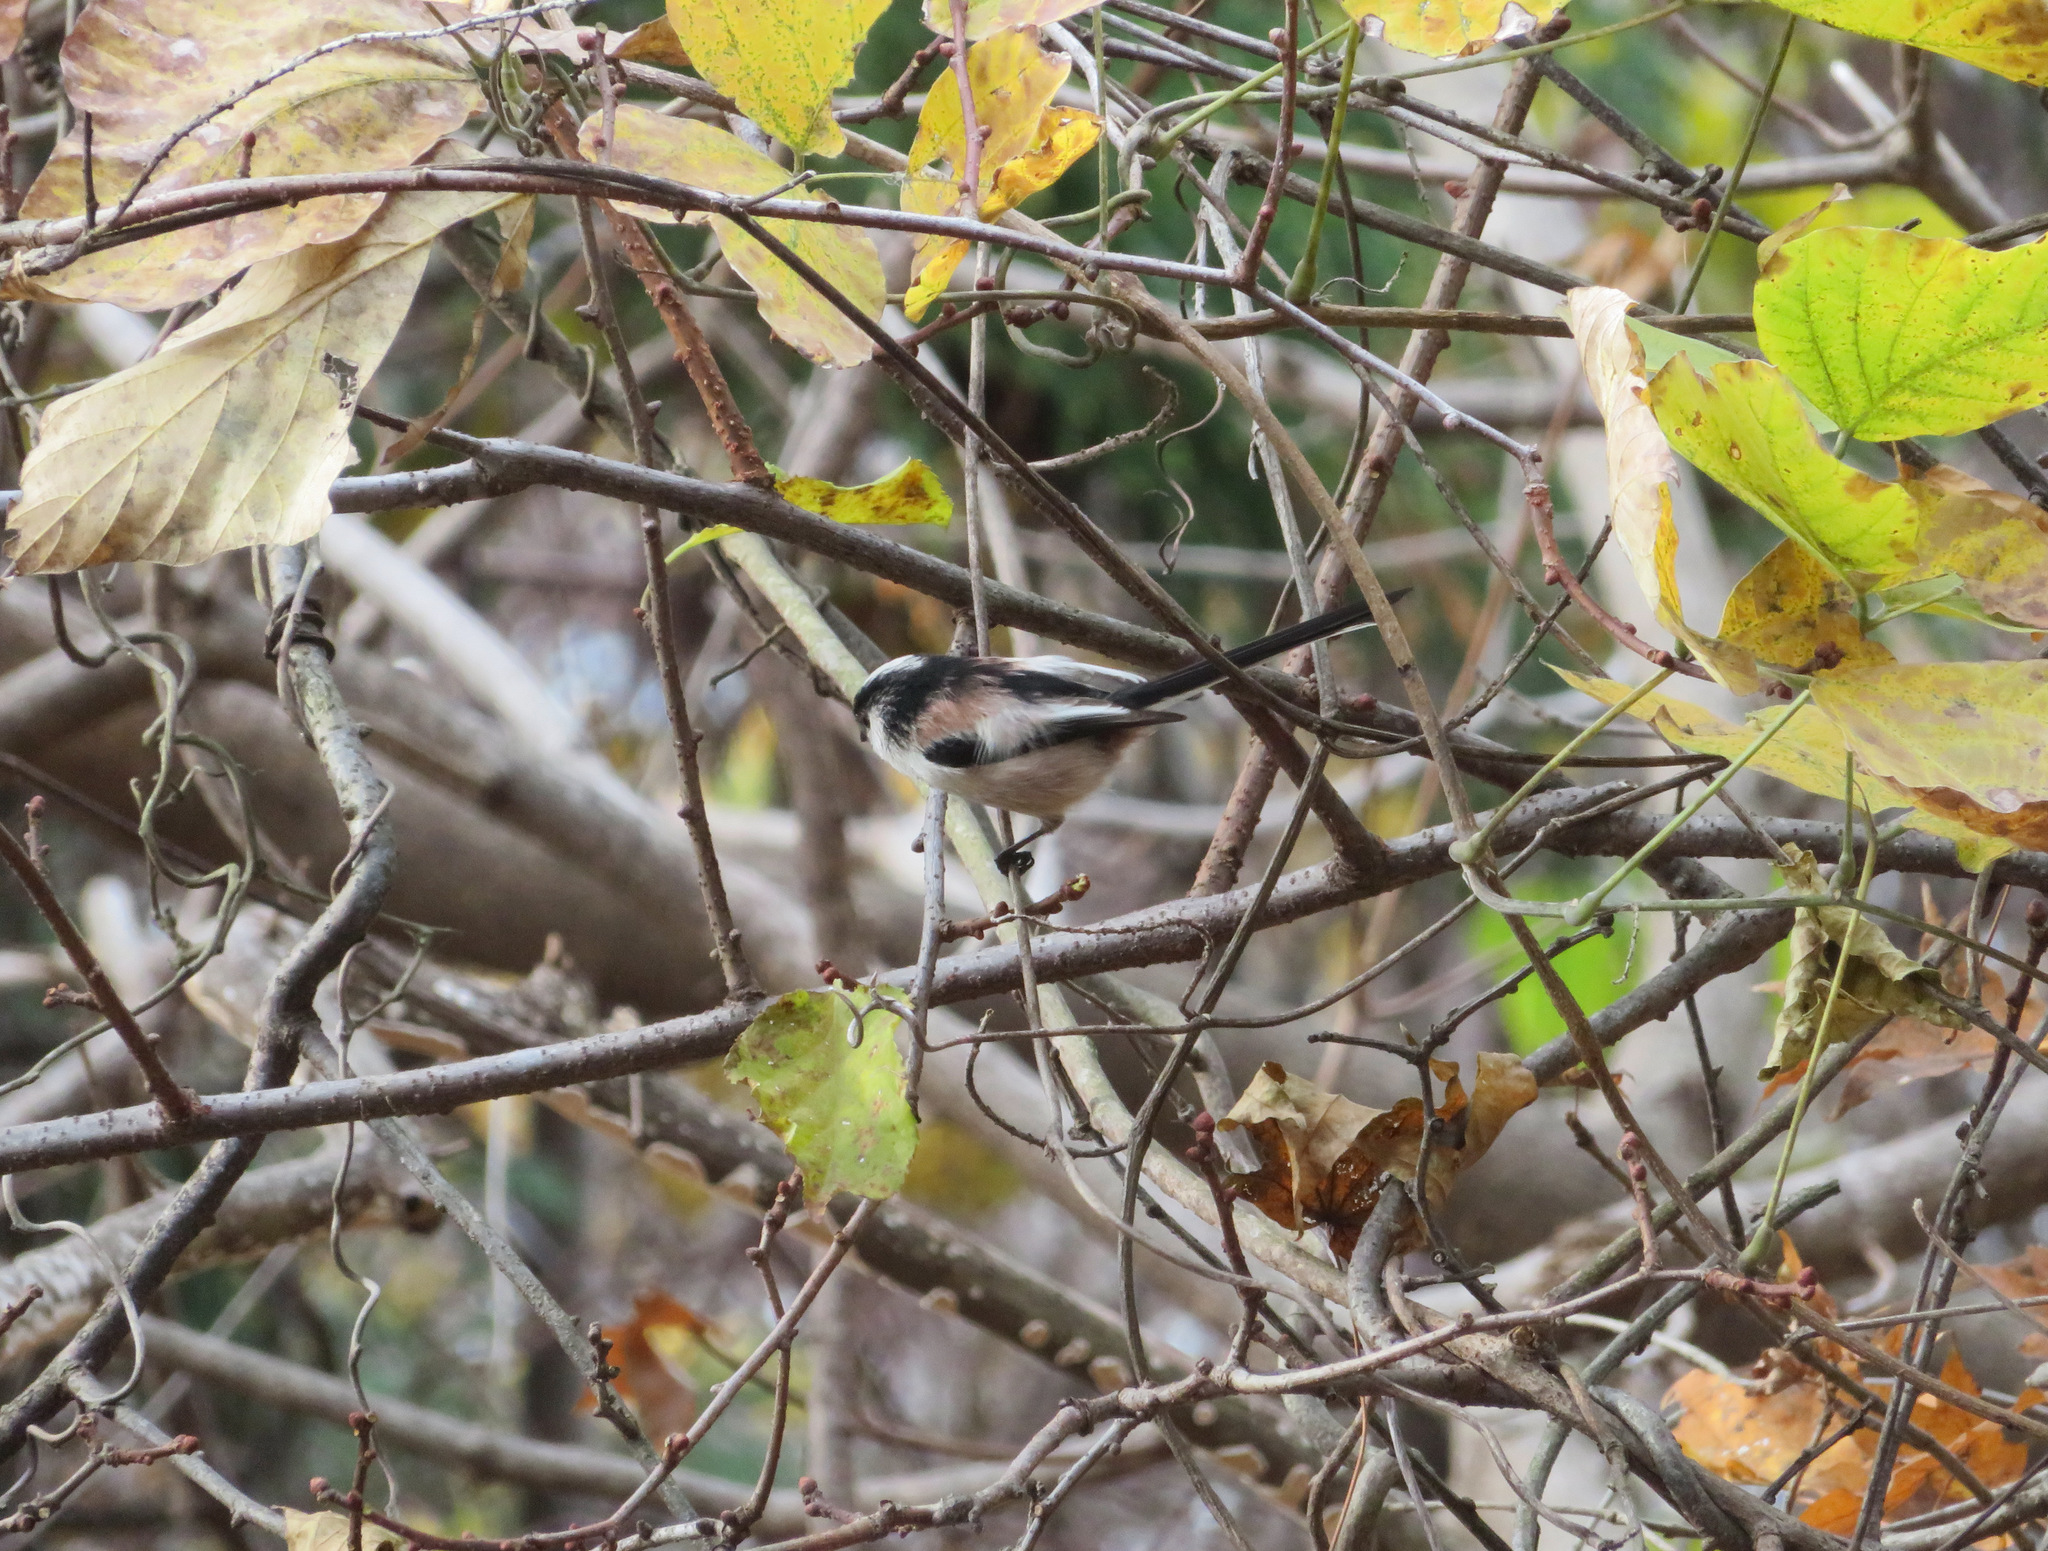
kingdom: Animalia
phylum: Chordata
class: Aves
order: Passeriformes
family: Aegithalidae
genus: Aegithalos
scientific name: Aegithalos caudatus
